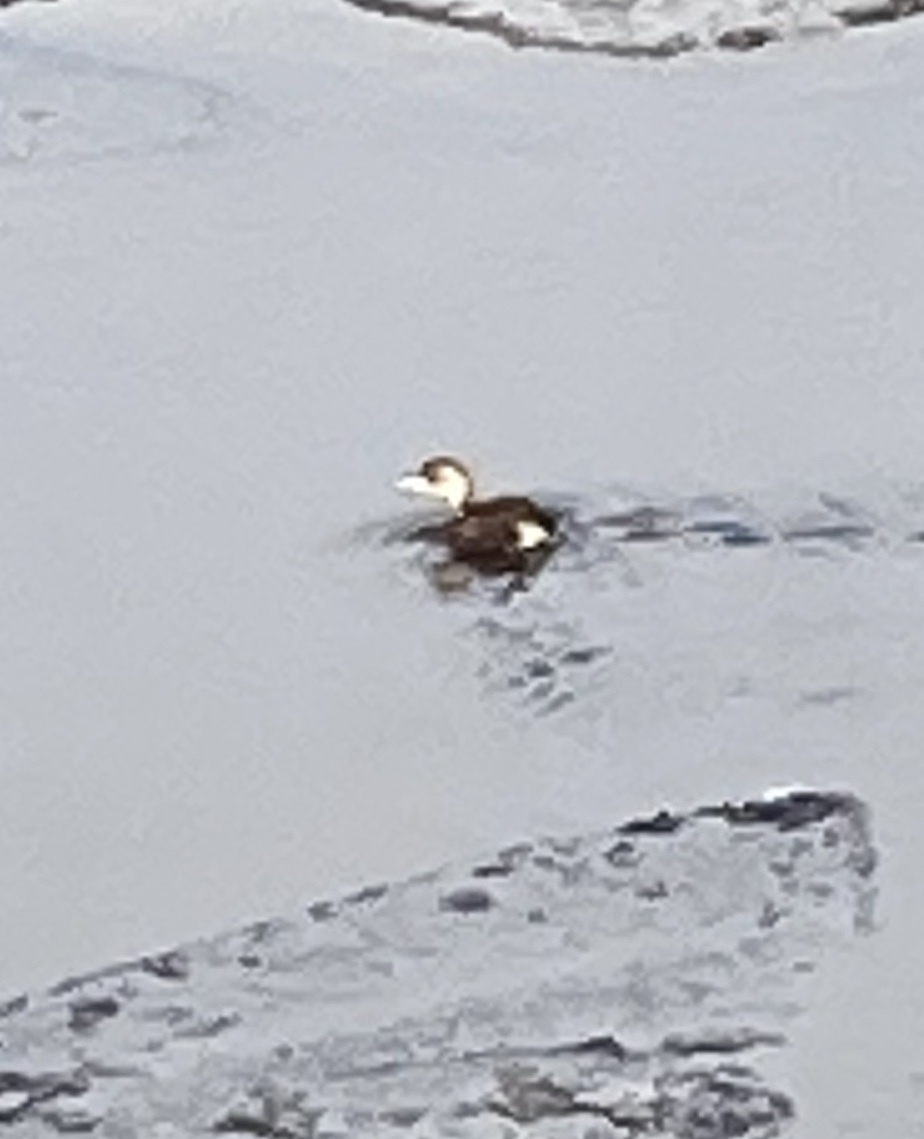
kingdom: Animalia
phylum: Chordata
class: Aves
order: Podicipediformes
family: Podicipedidae
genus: Tachybaptus
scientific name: Tachybaptus ruficollis
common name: Little grebe
